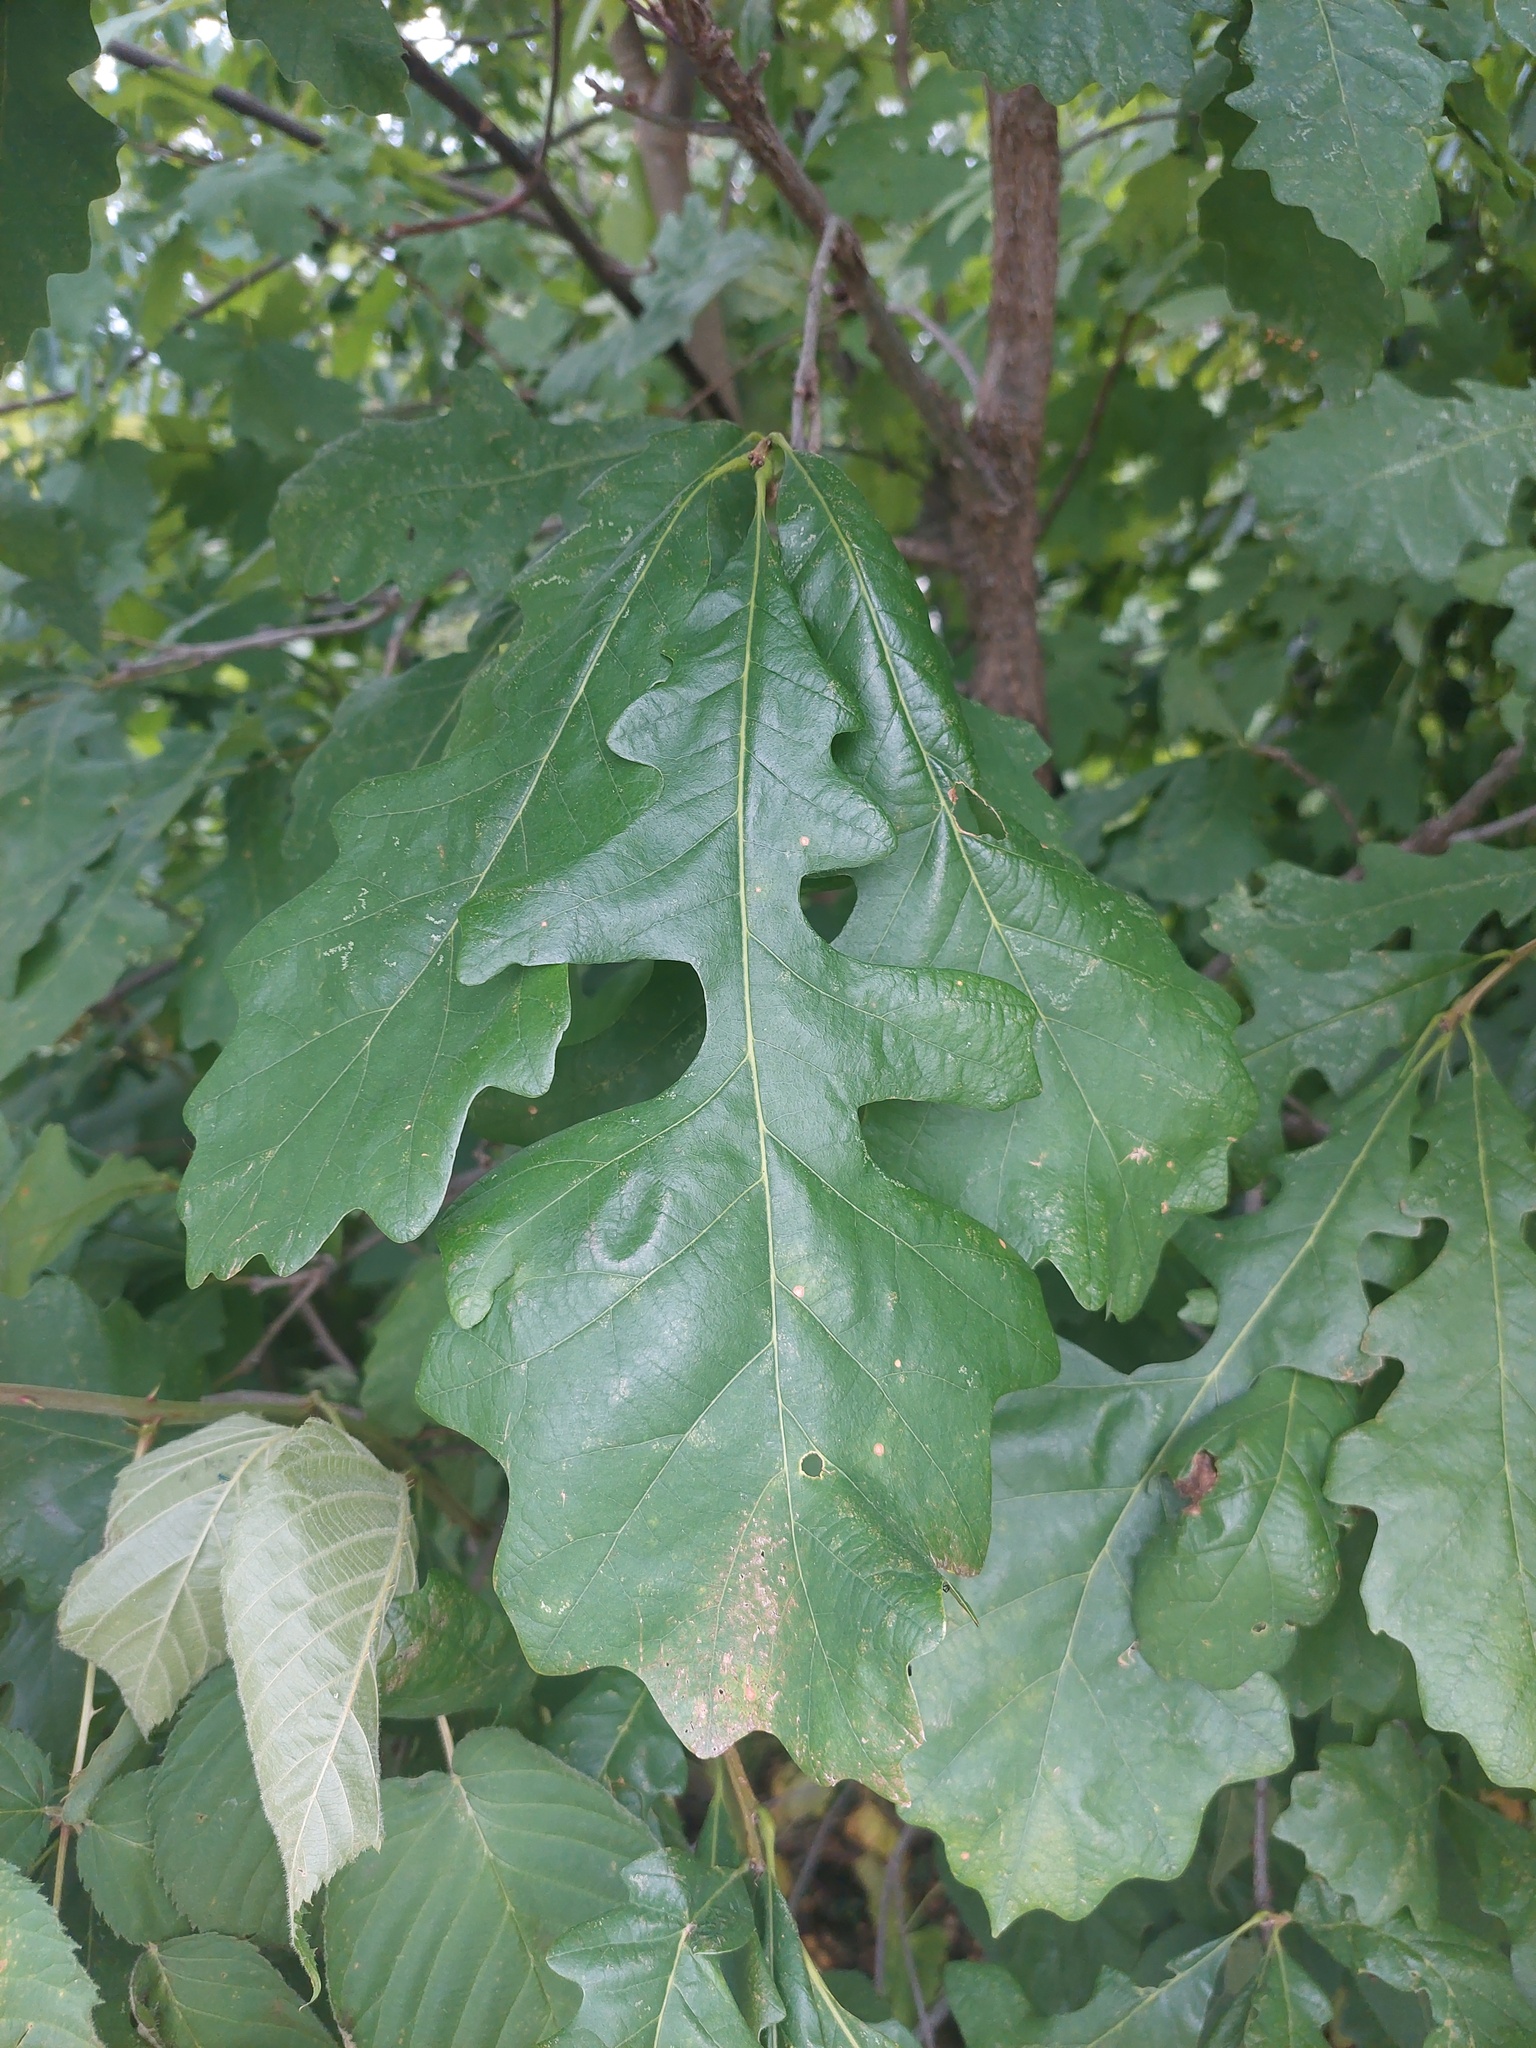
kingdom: Plantae
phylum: Tracheophyta
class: Magnoliopsida
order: Fagales
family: Fagaceae
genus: Quercus
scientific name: Quercus macrocarpa
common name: Bur oak
